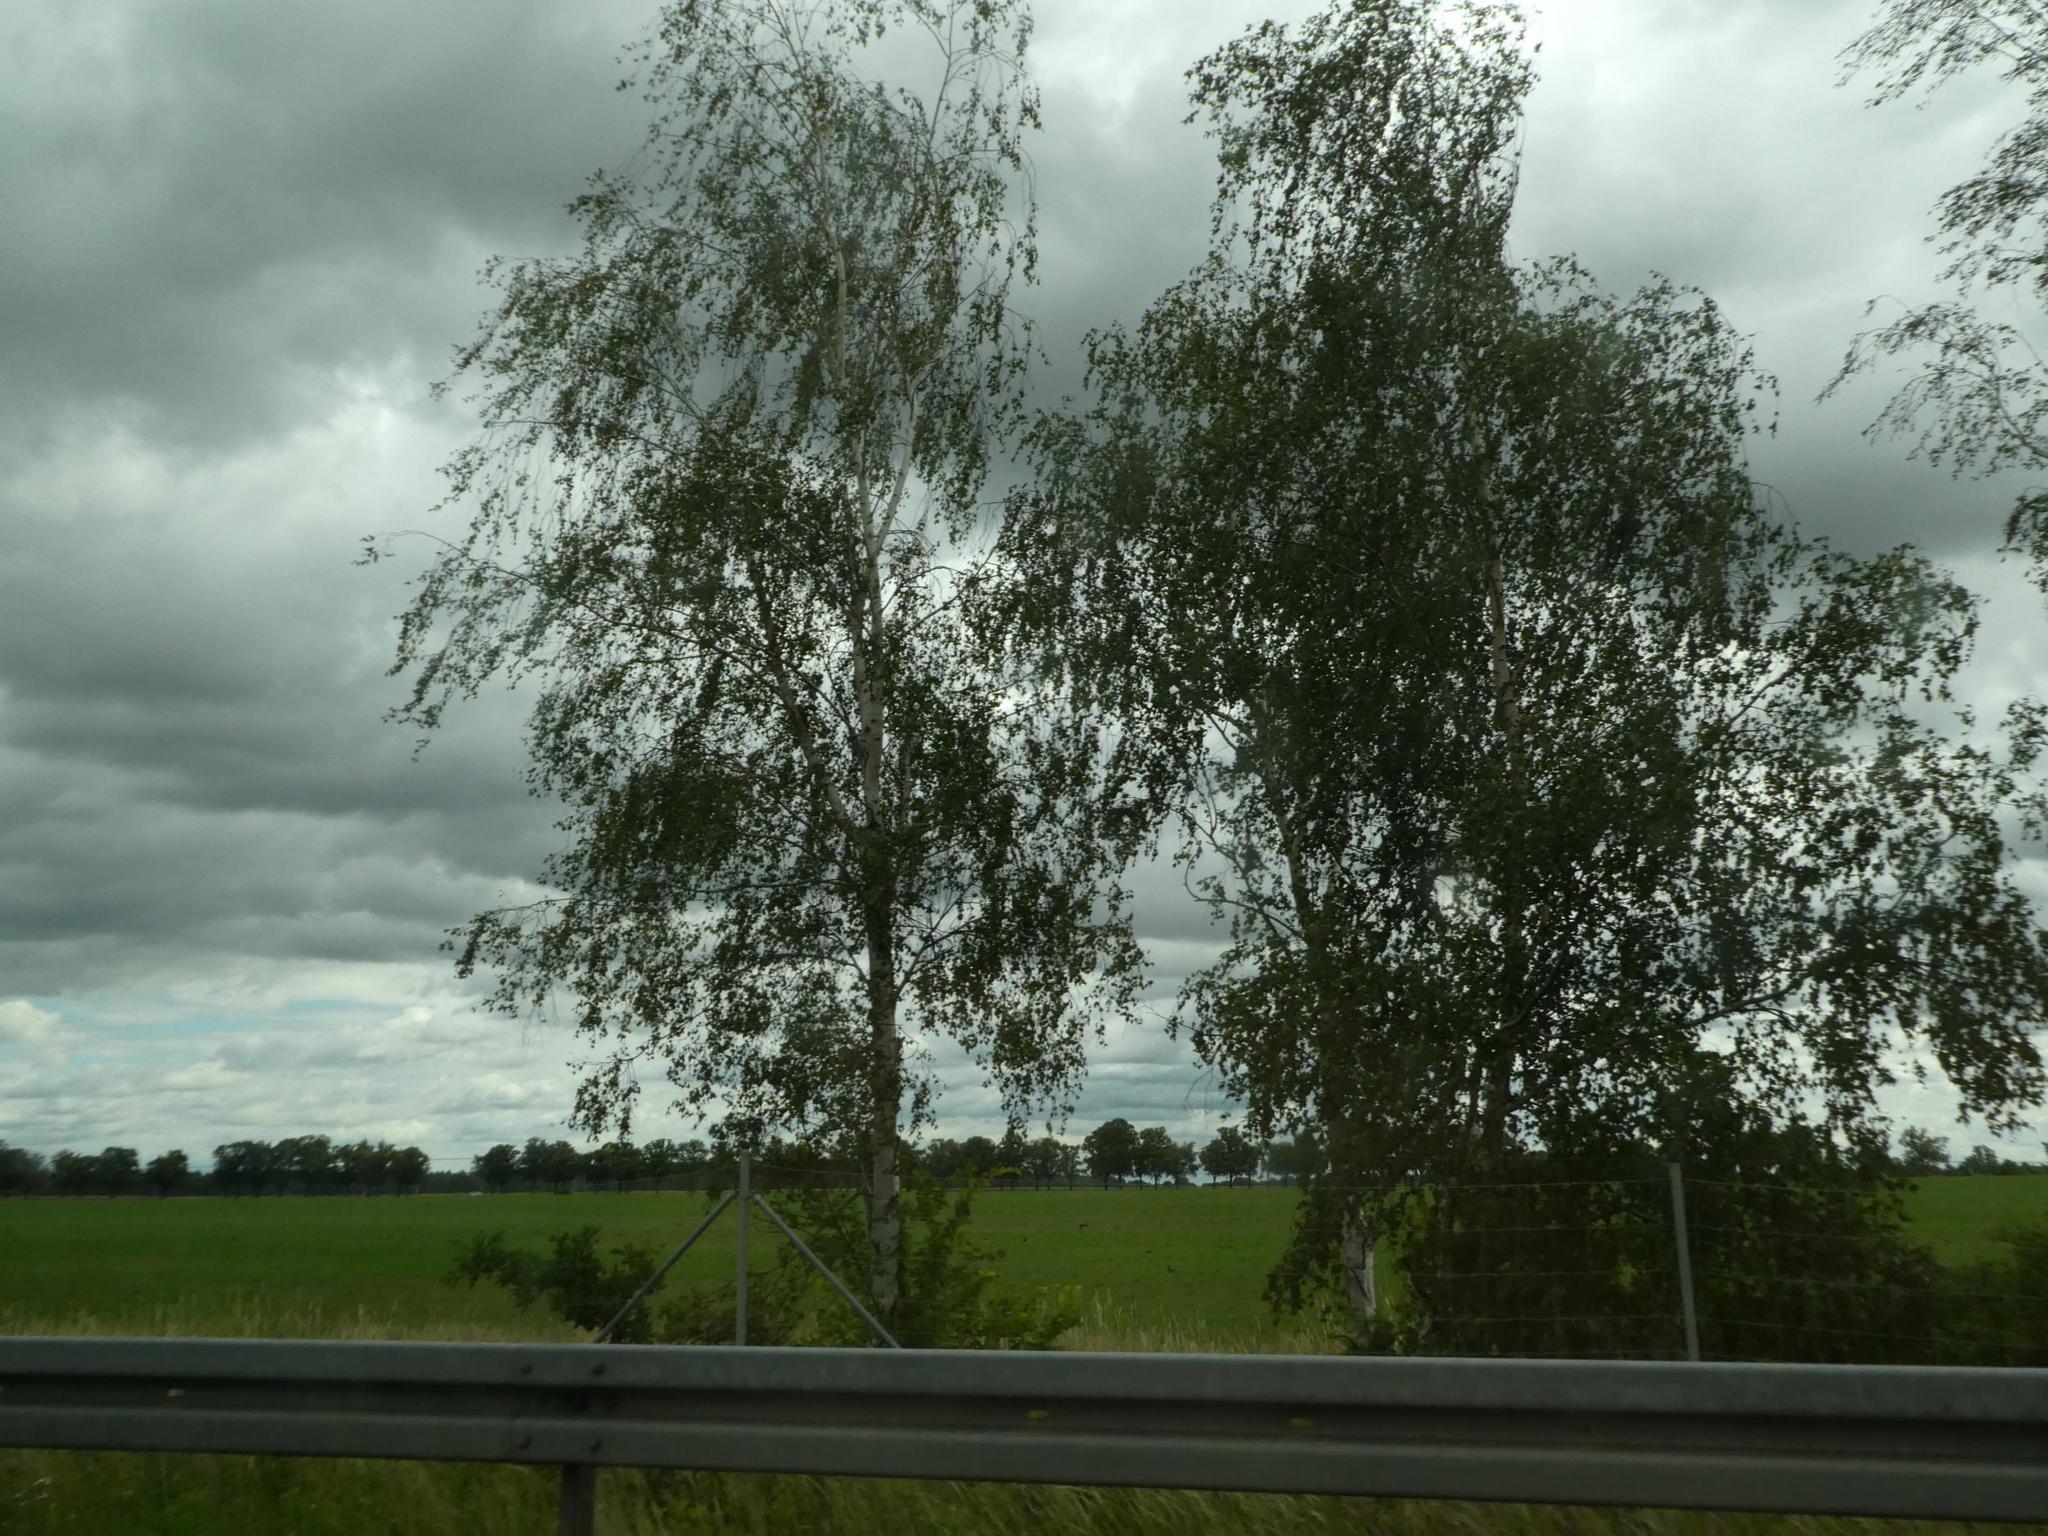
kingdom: Plantae
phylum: Tracheophyta
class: Magnoliopsida
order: Fagales
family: Betulaceae
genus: Betula
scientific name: Betula pendula
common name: Silver birch
